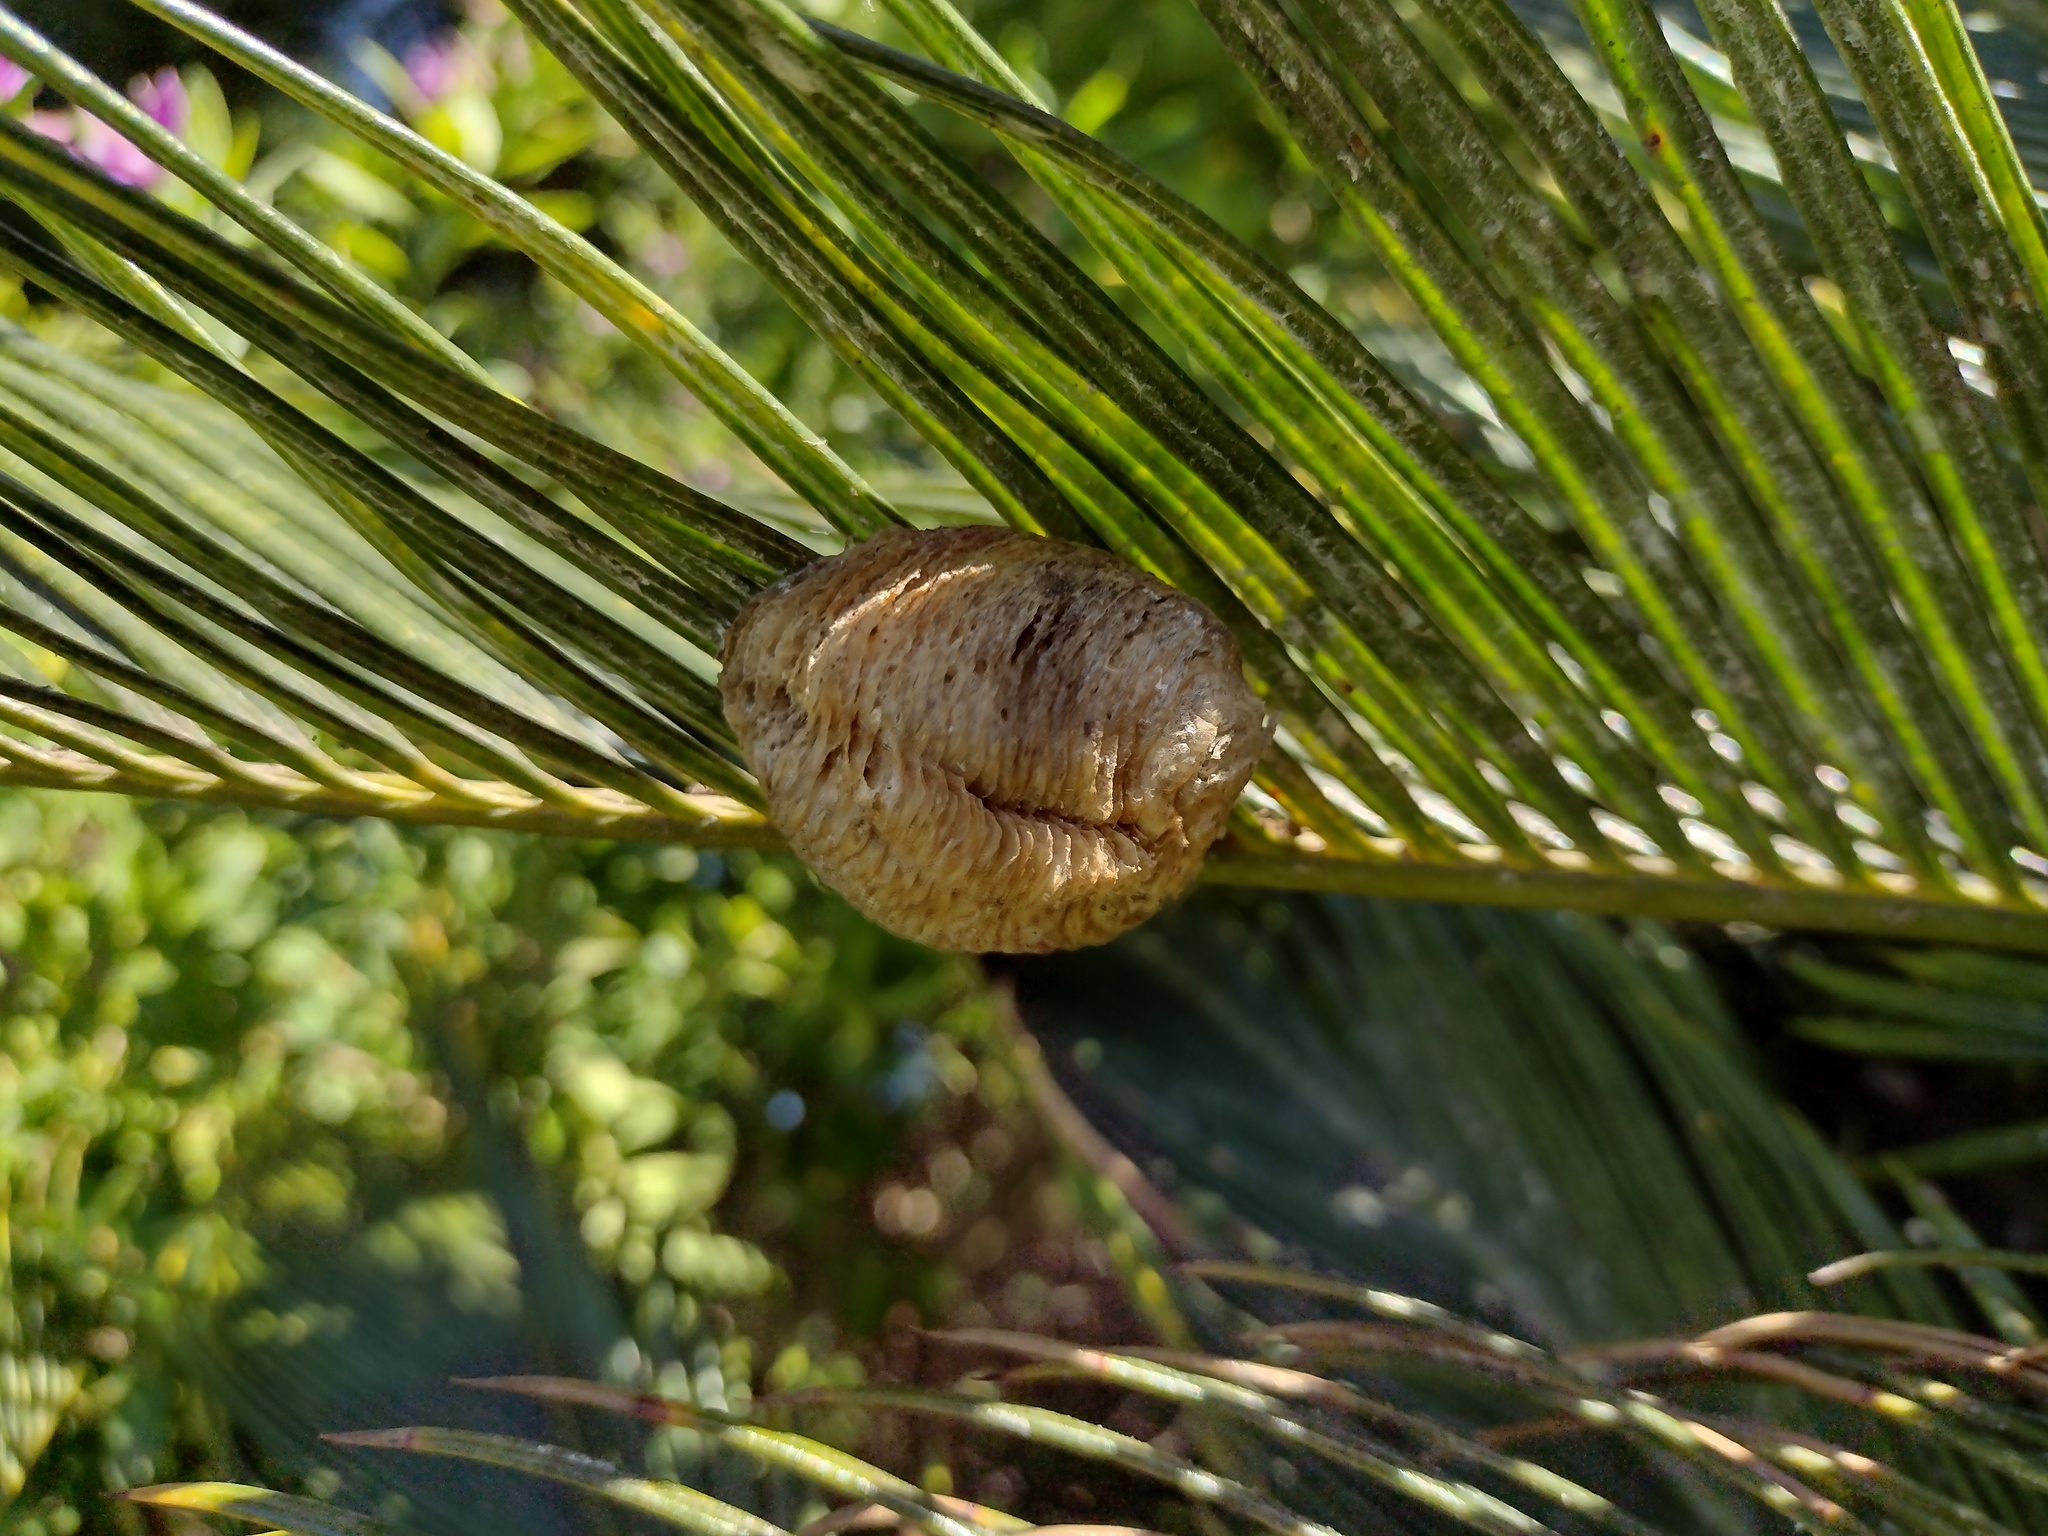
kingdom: Animalia
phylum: Arthropoda
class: Insecta
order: Mantodea
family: Mantidae
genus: Sphodromantis
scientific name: Sphodromantis viridis
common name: Giant african mantis
